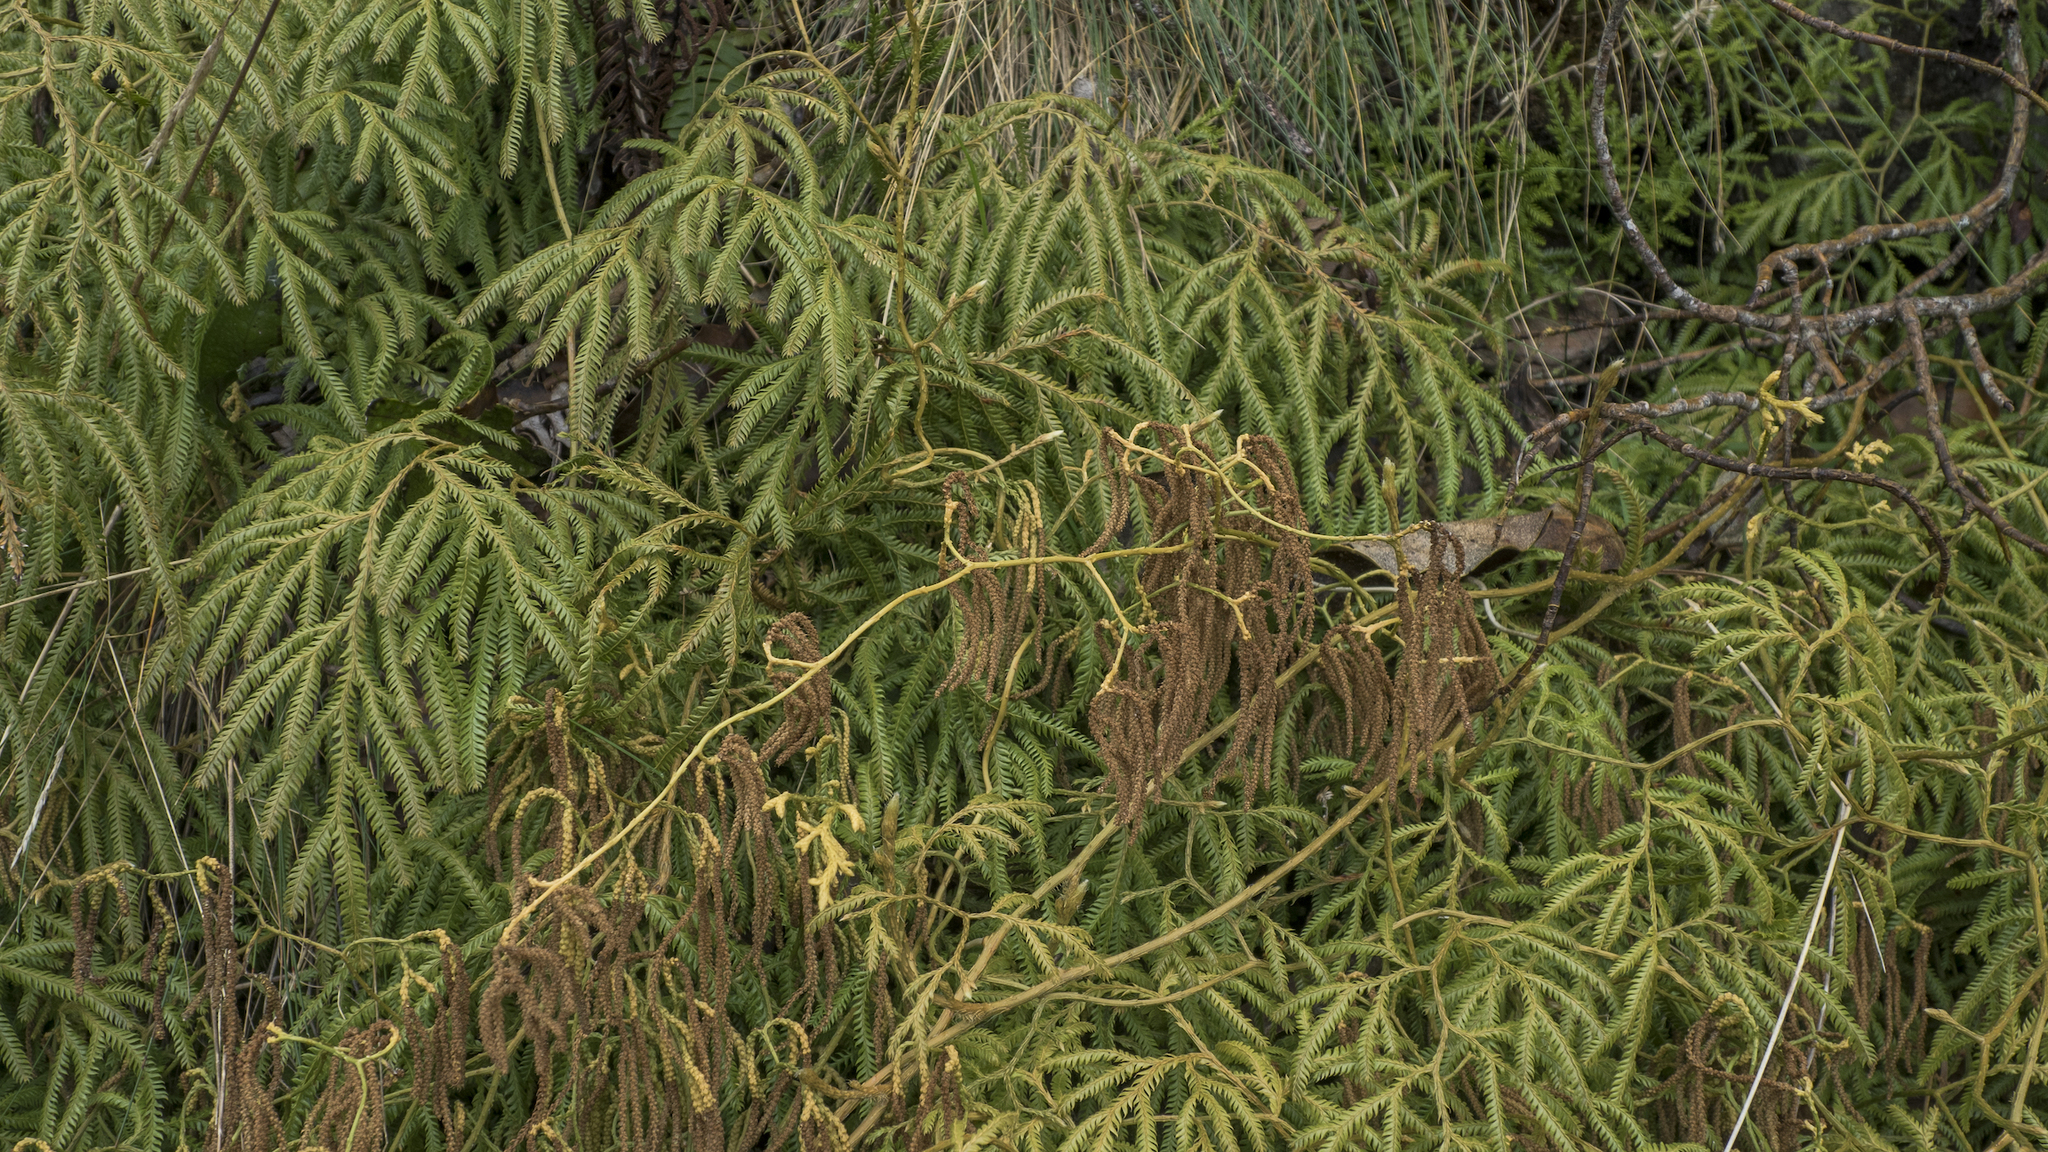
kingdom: Plantae
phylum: Tracheophyta
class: Lycopodiopsida
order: Lycopodiales
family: Lycopodiaceae
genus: Lycopodium
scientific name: Lycopodium volubile
